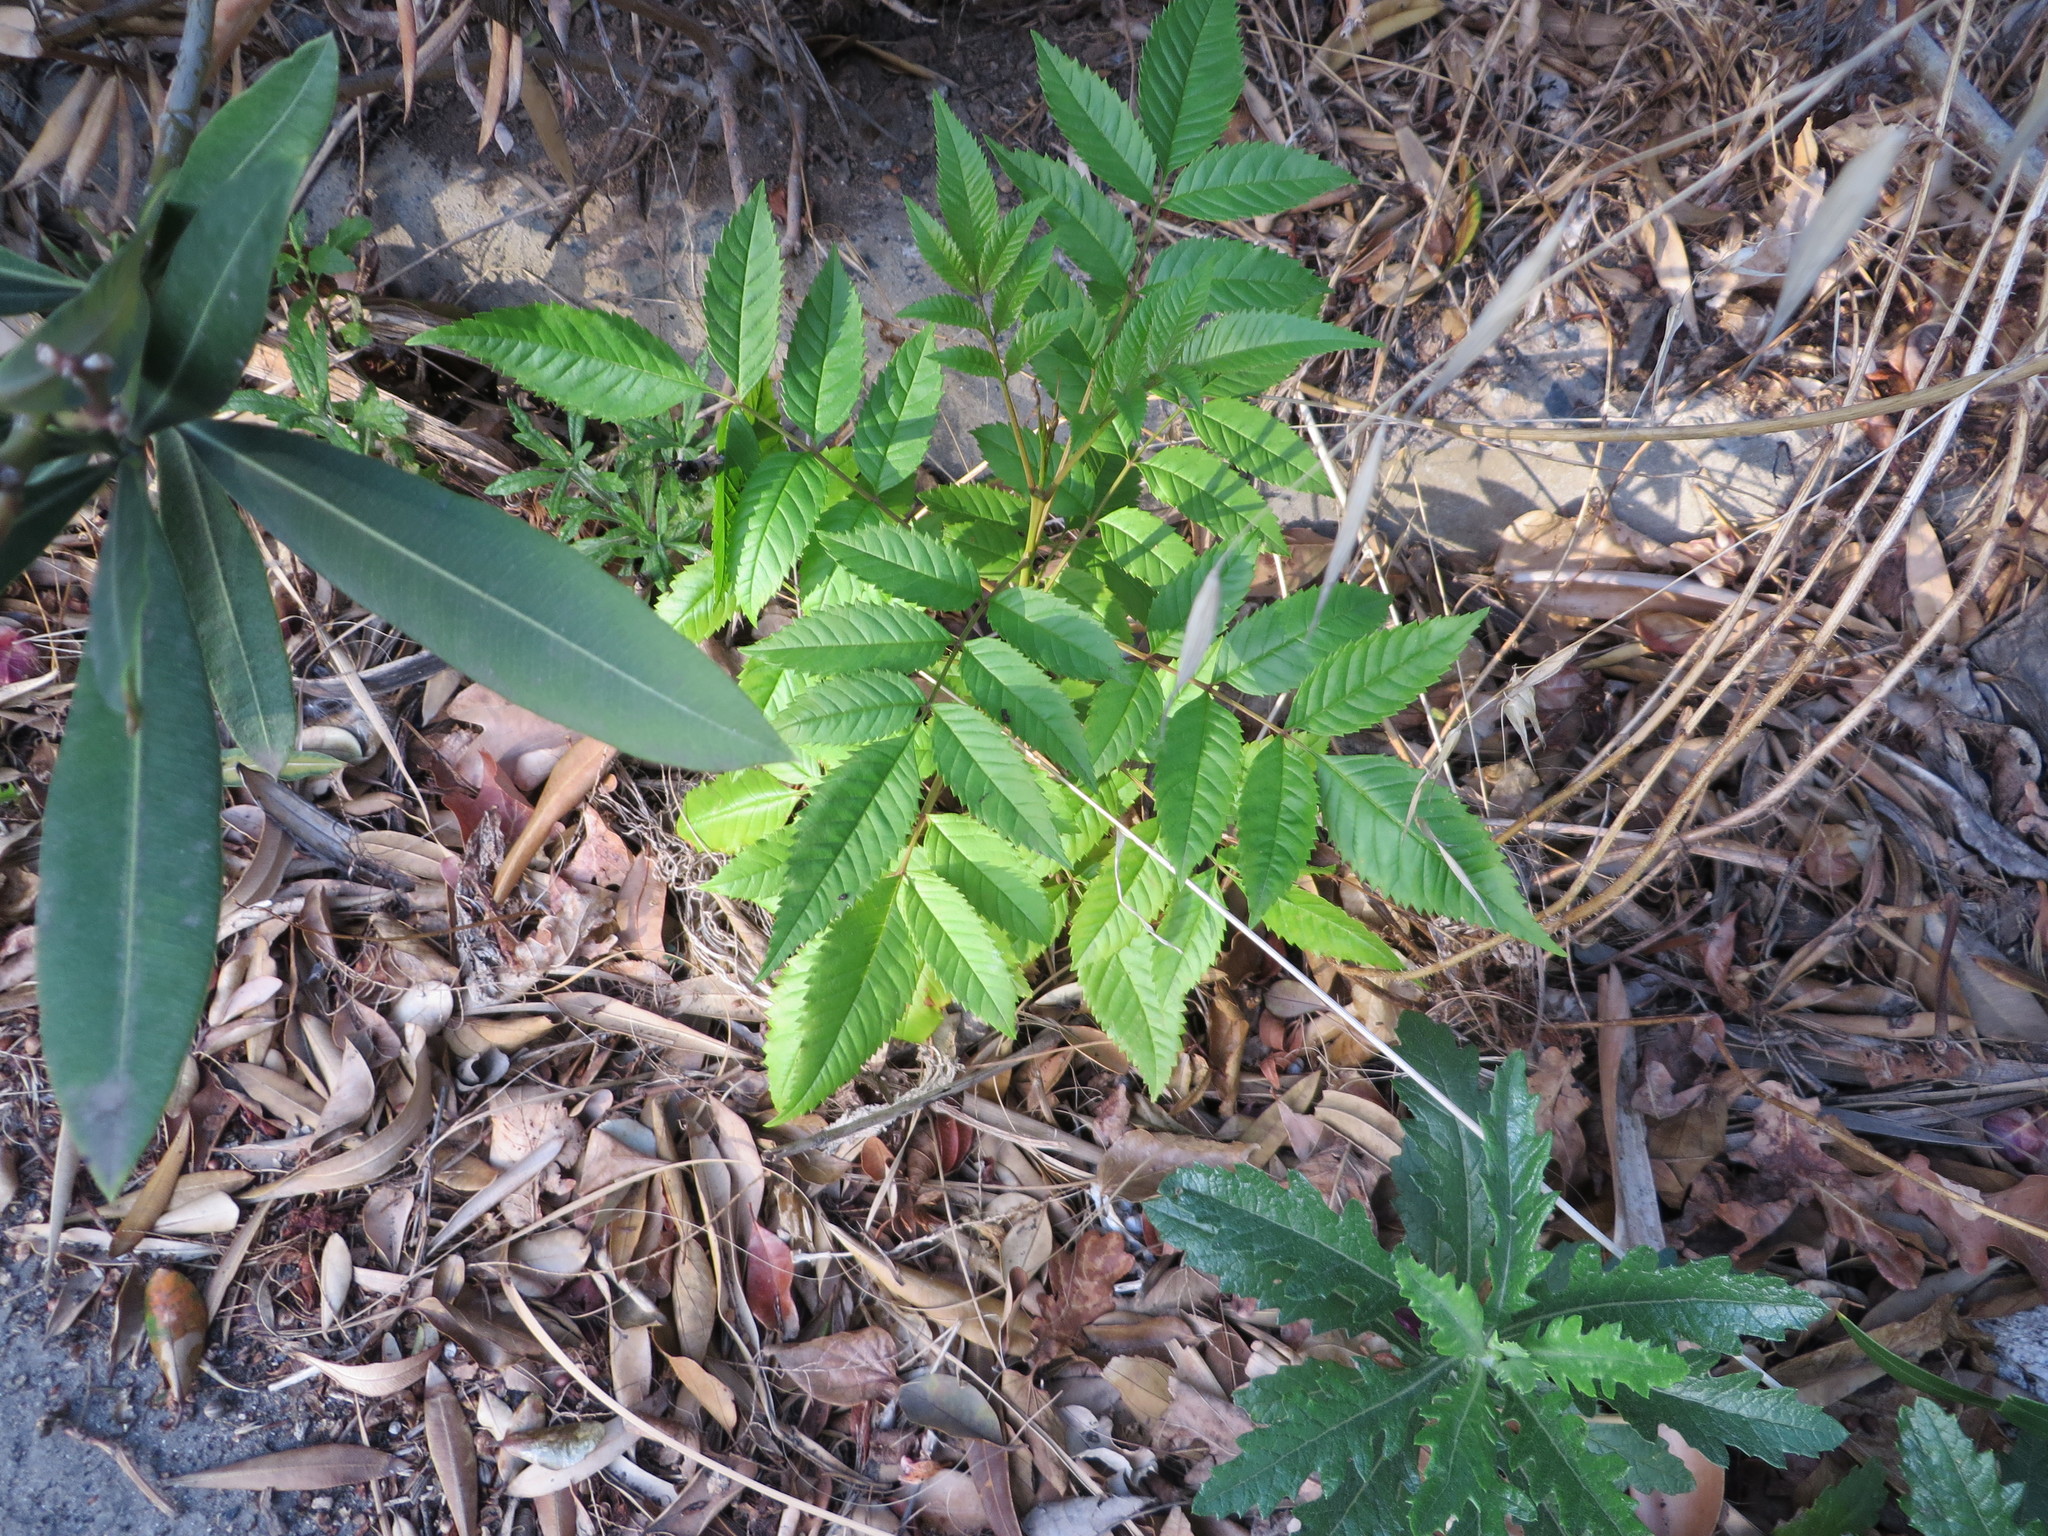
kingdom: Plantae
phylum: Tracheophyta
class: Magnoliopsida
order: Lamiales
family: Bignoniaceae
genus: Tecoma
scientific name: Tecoma stans
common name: Yellow trumpetbush
